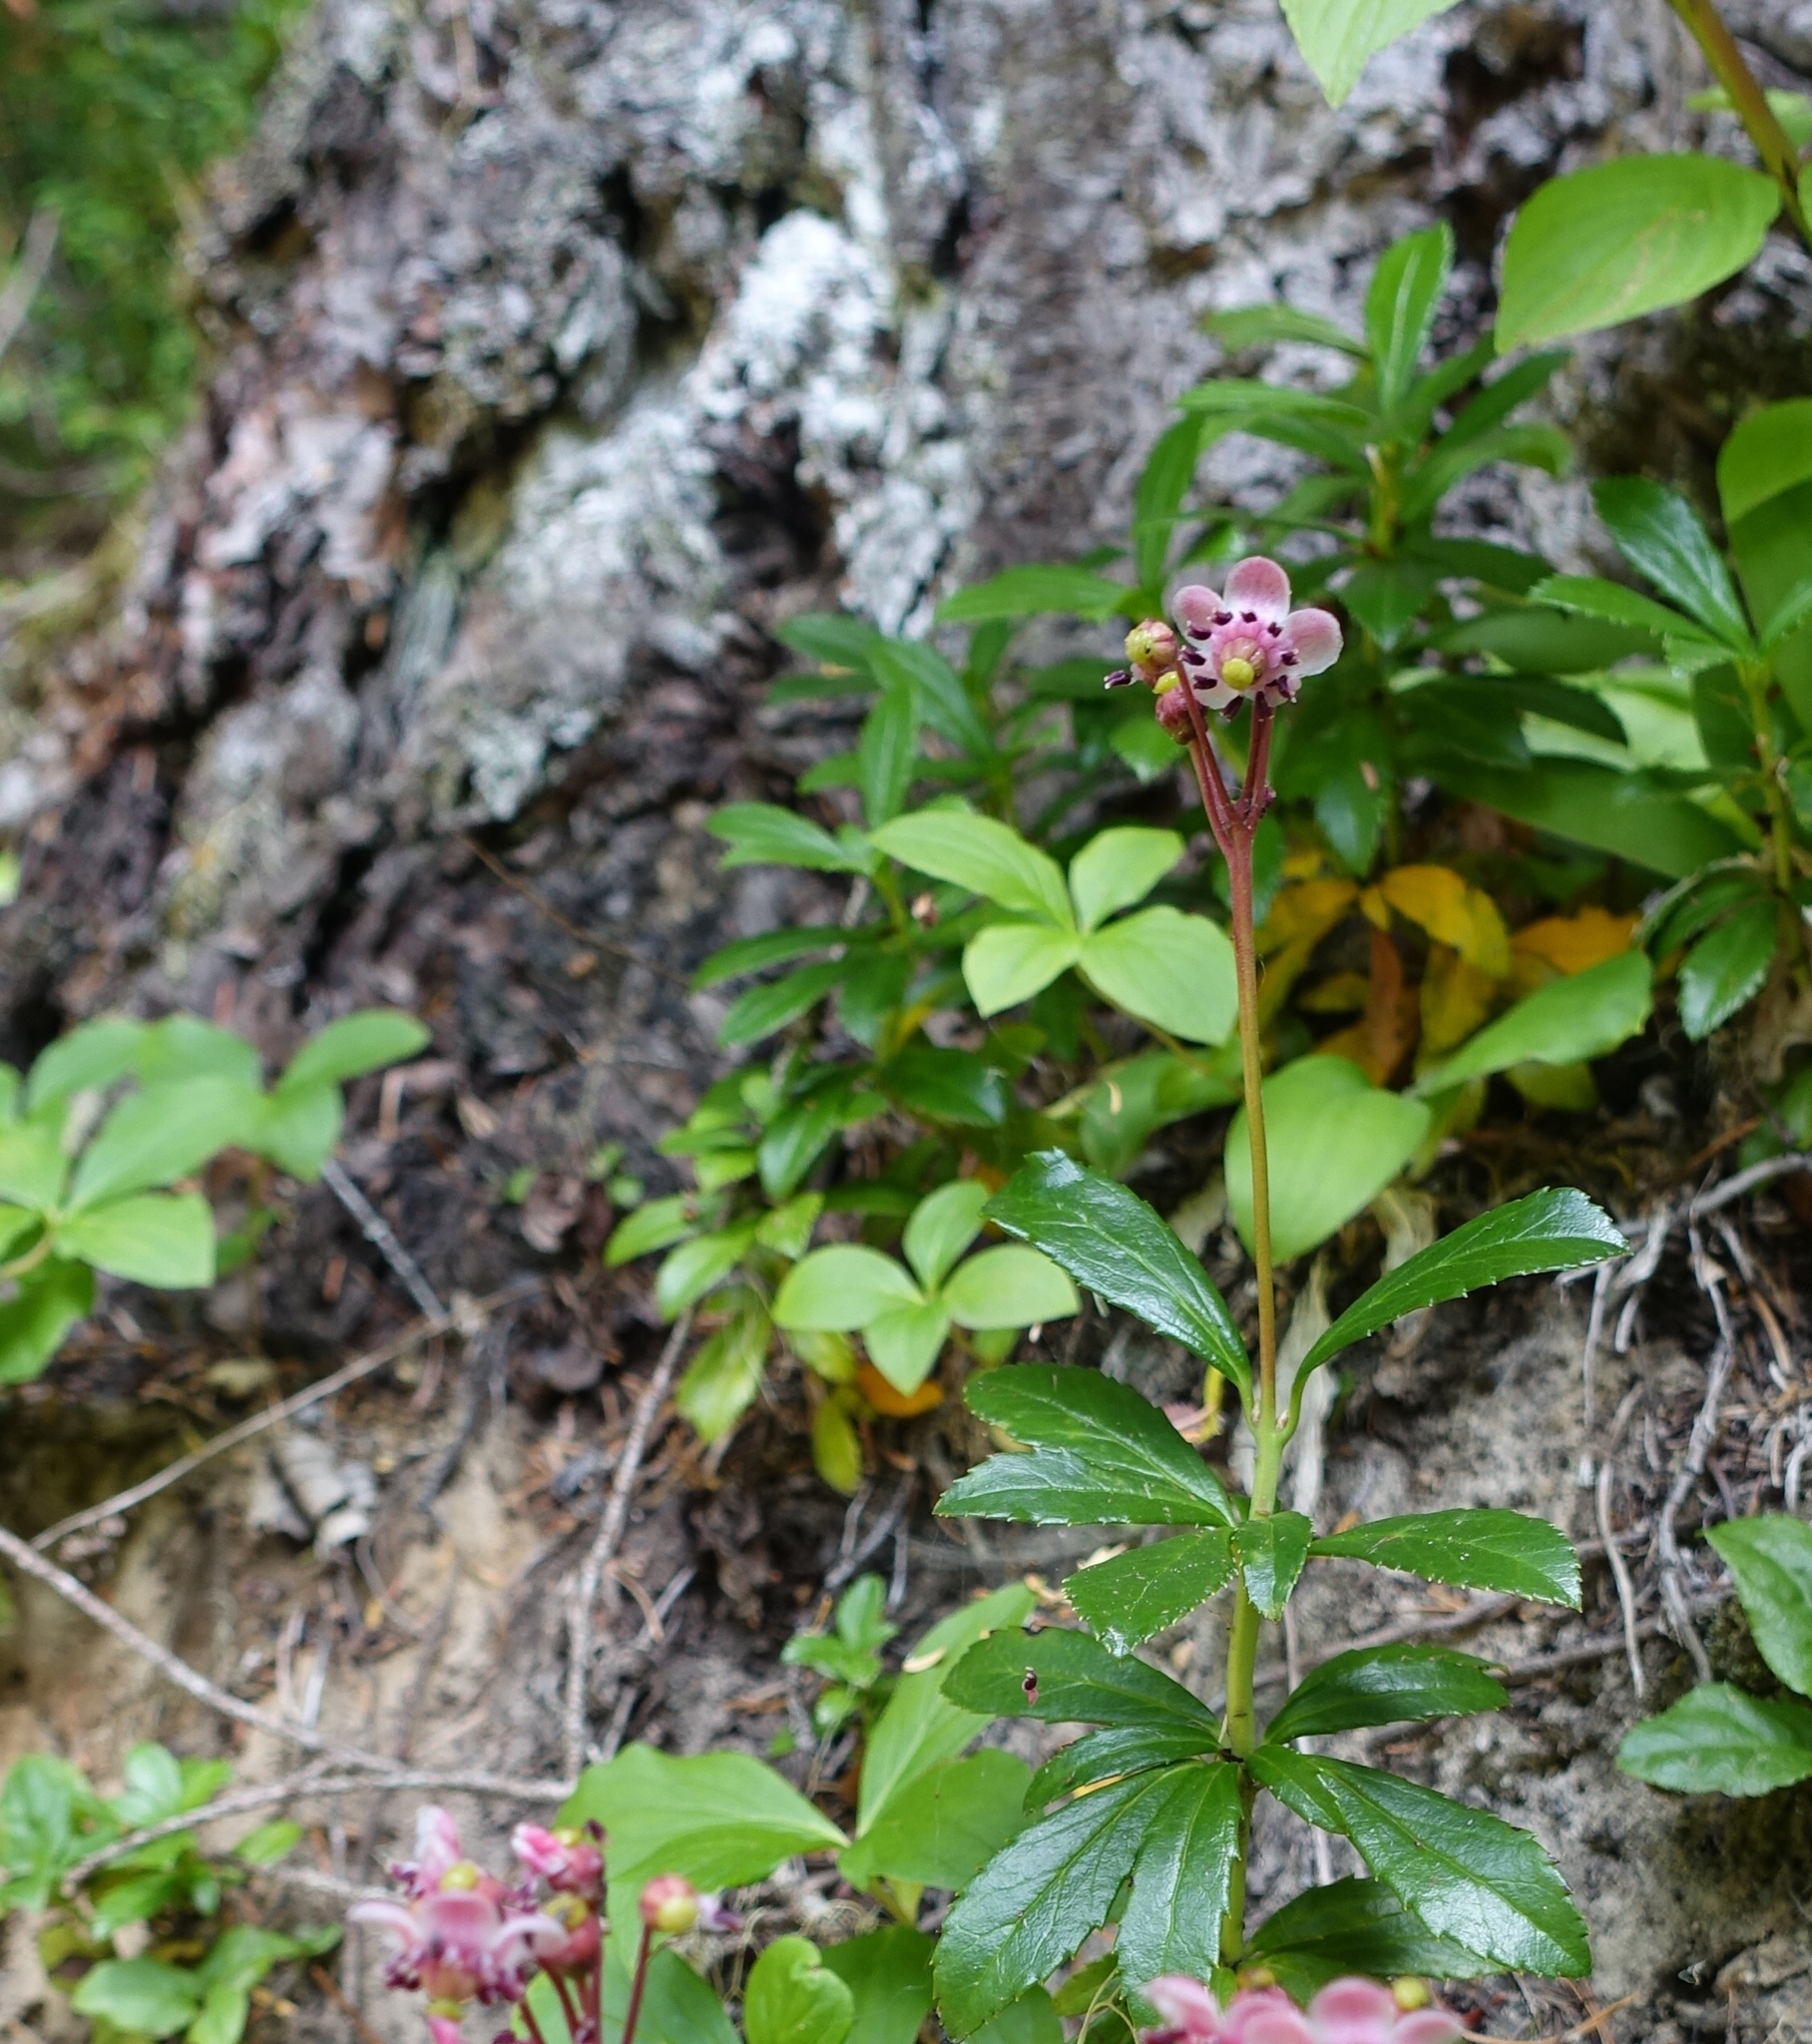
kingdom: Plantae
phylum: Tracheophyta
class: Magnoliopsida
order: Ericales
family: Ericaceae
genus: Chimaphila
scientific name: Chimaphila umbellata
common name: Pipsissewa
